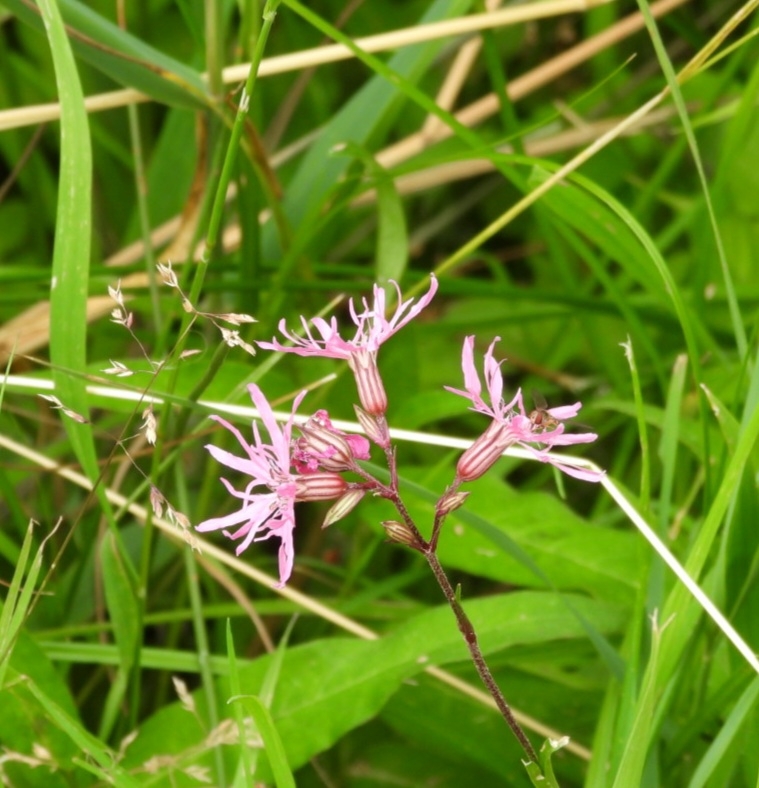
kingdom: Plantae
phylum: Tracheophyta
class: Magnoliopsida
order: Caryophyllales
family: Caryophyllaceae
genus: Silene
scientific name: Silene flos-cuculi
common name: Ragged-robin
